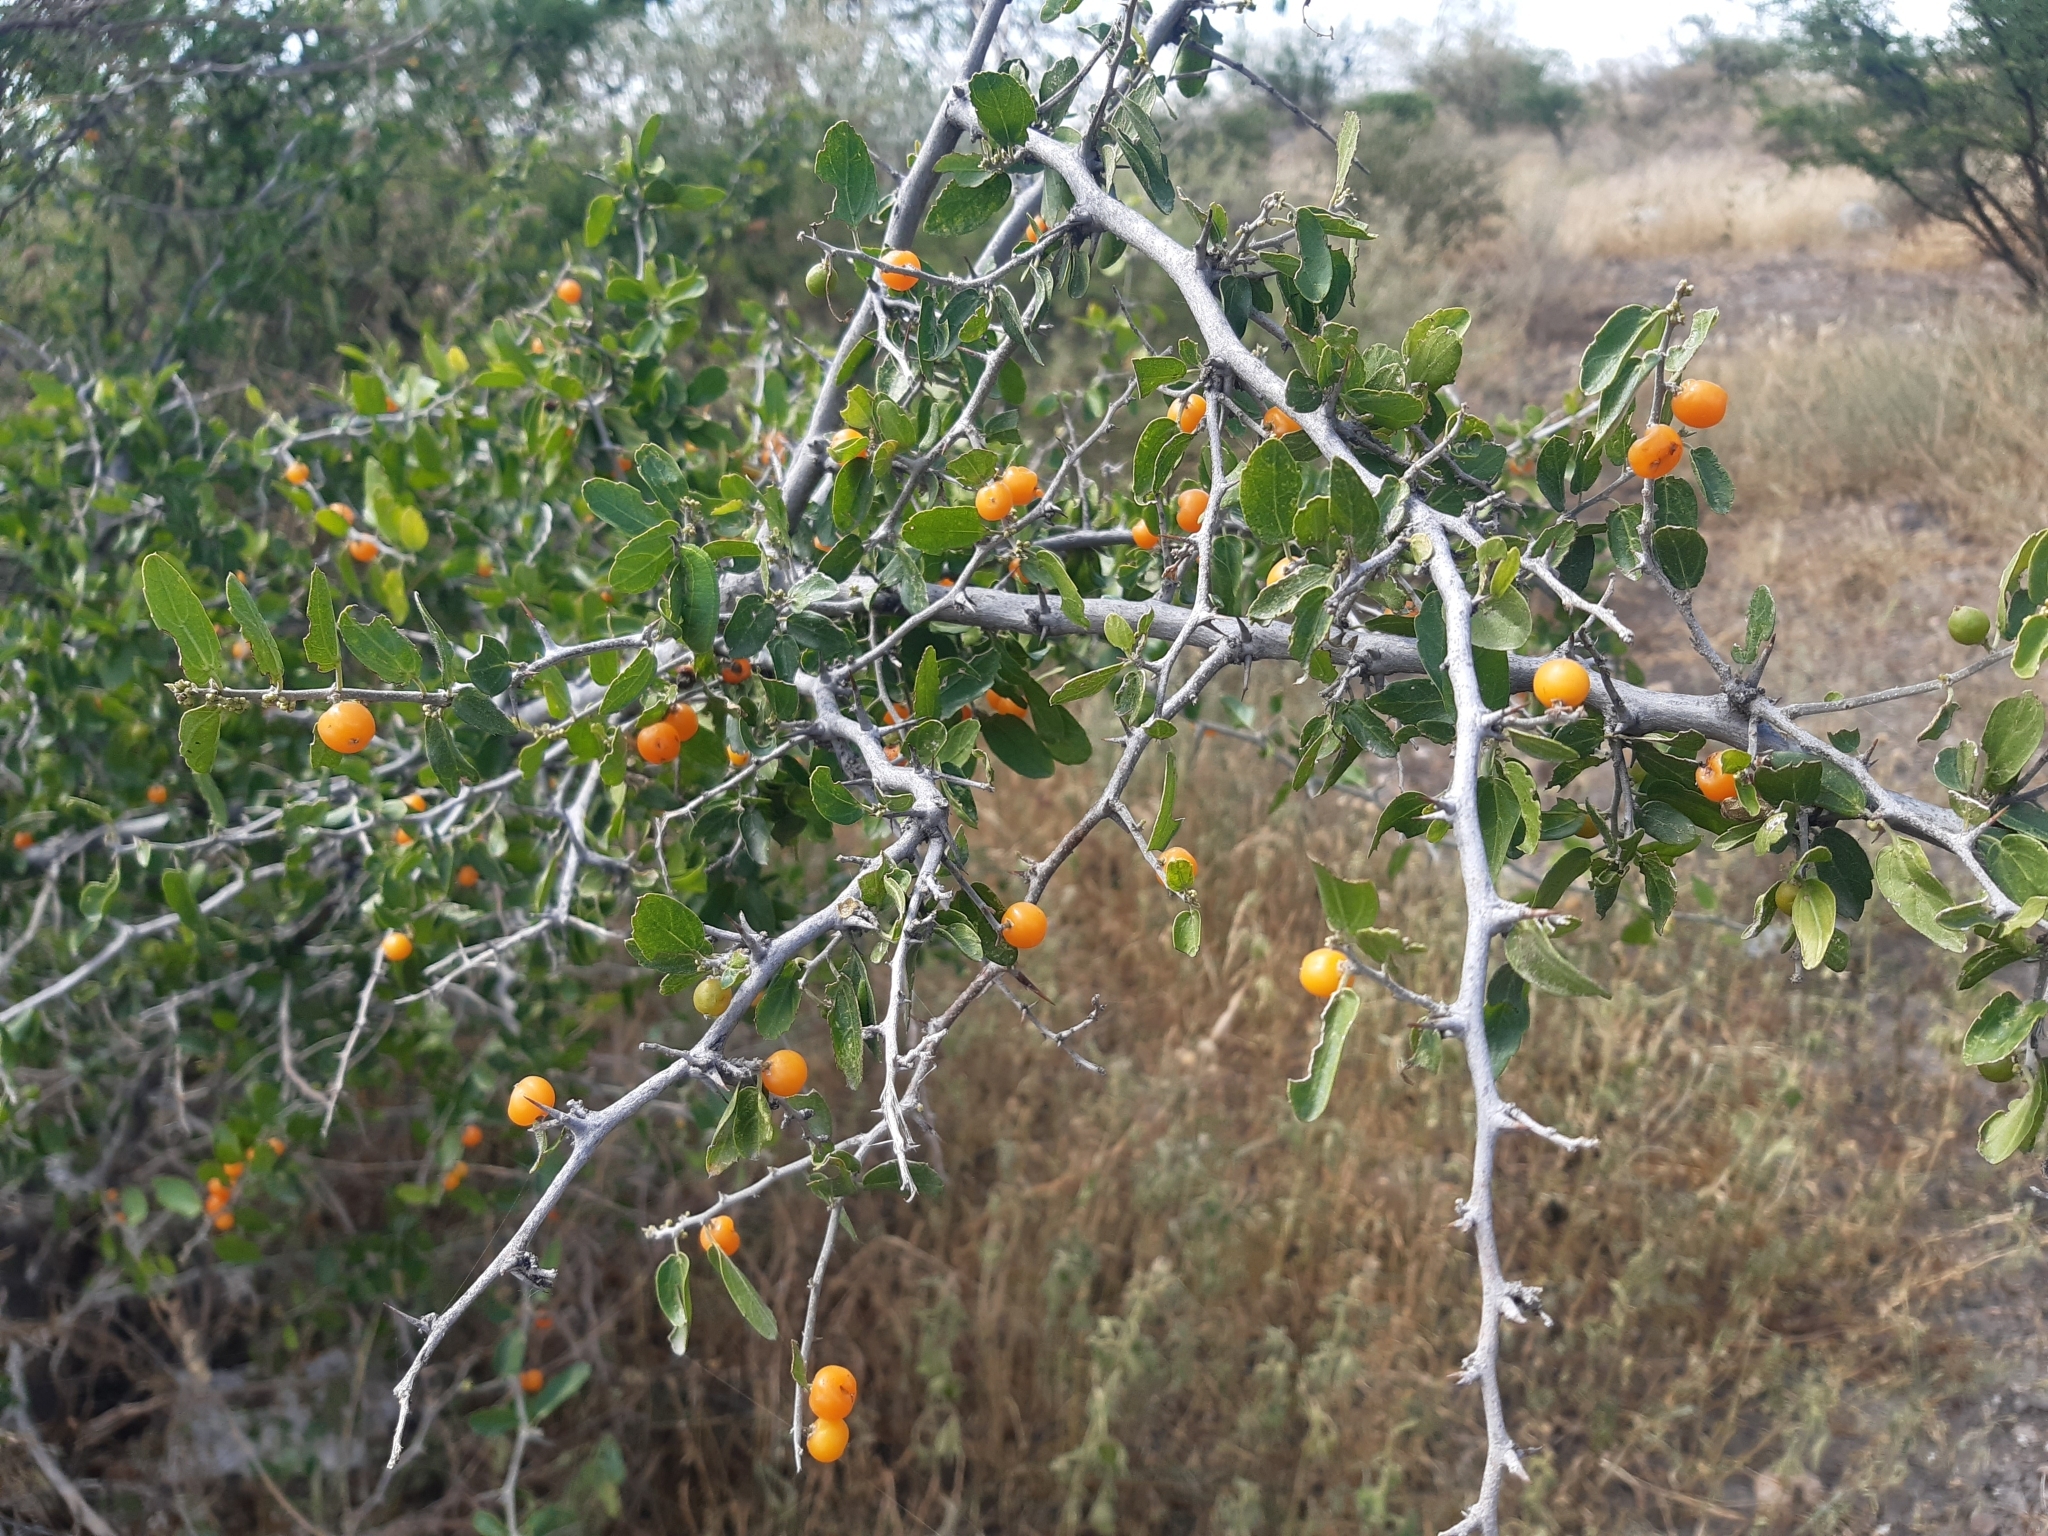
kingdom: Plantae
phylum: Tracheophyta
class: Magnoliopsida
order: Rosales
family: Cannabaceae
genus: Celtis
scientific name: Celtis pallida
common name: Desert hackberry
